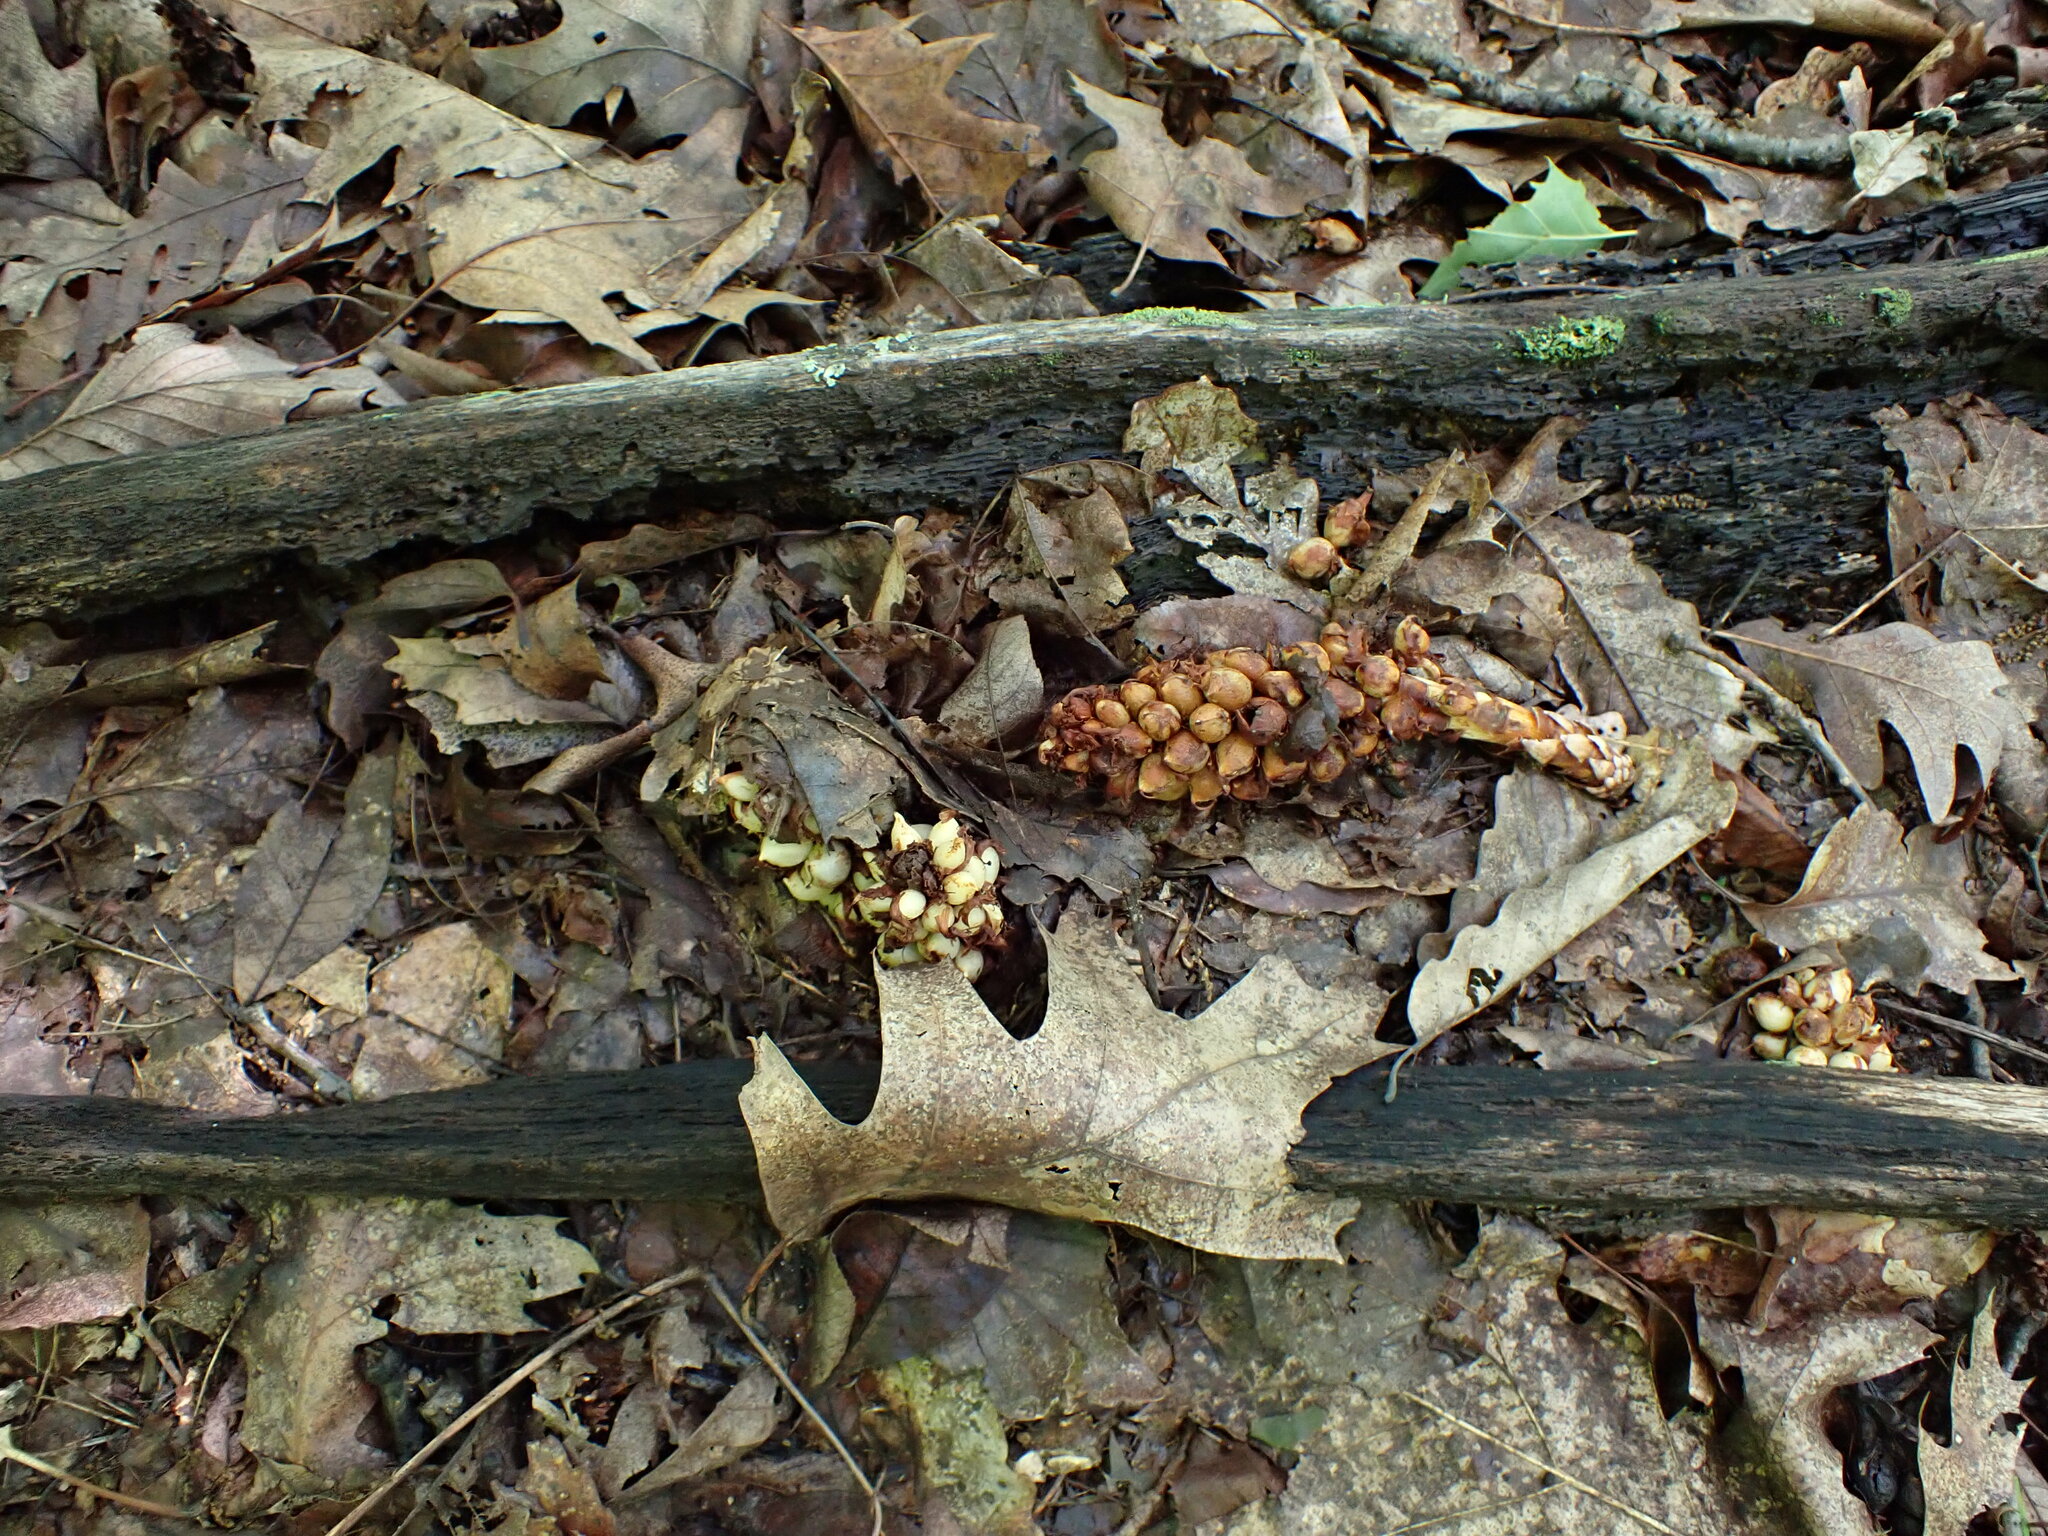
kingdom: Plantae
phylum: Tracheophyta
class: Magnoliopsida
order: Lamiales
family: Orobanchaceae
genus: Conopholis
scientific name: Conopholis americana
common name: American cancer-root
